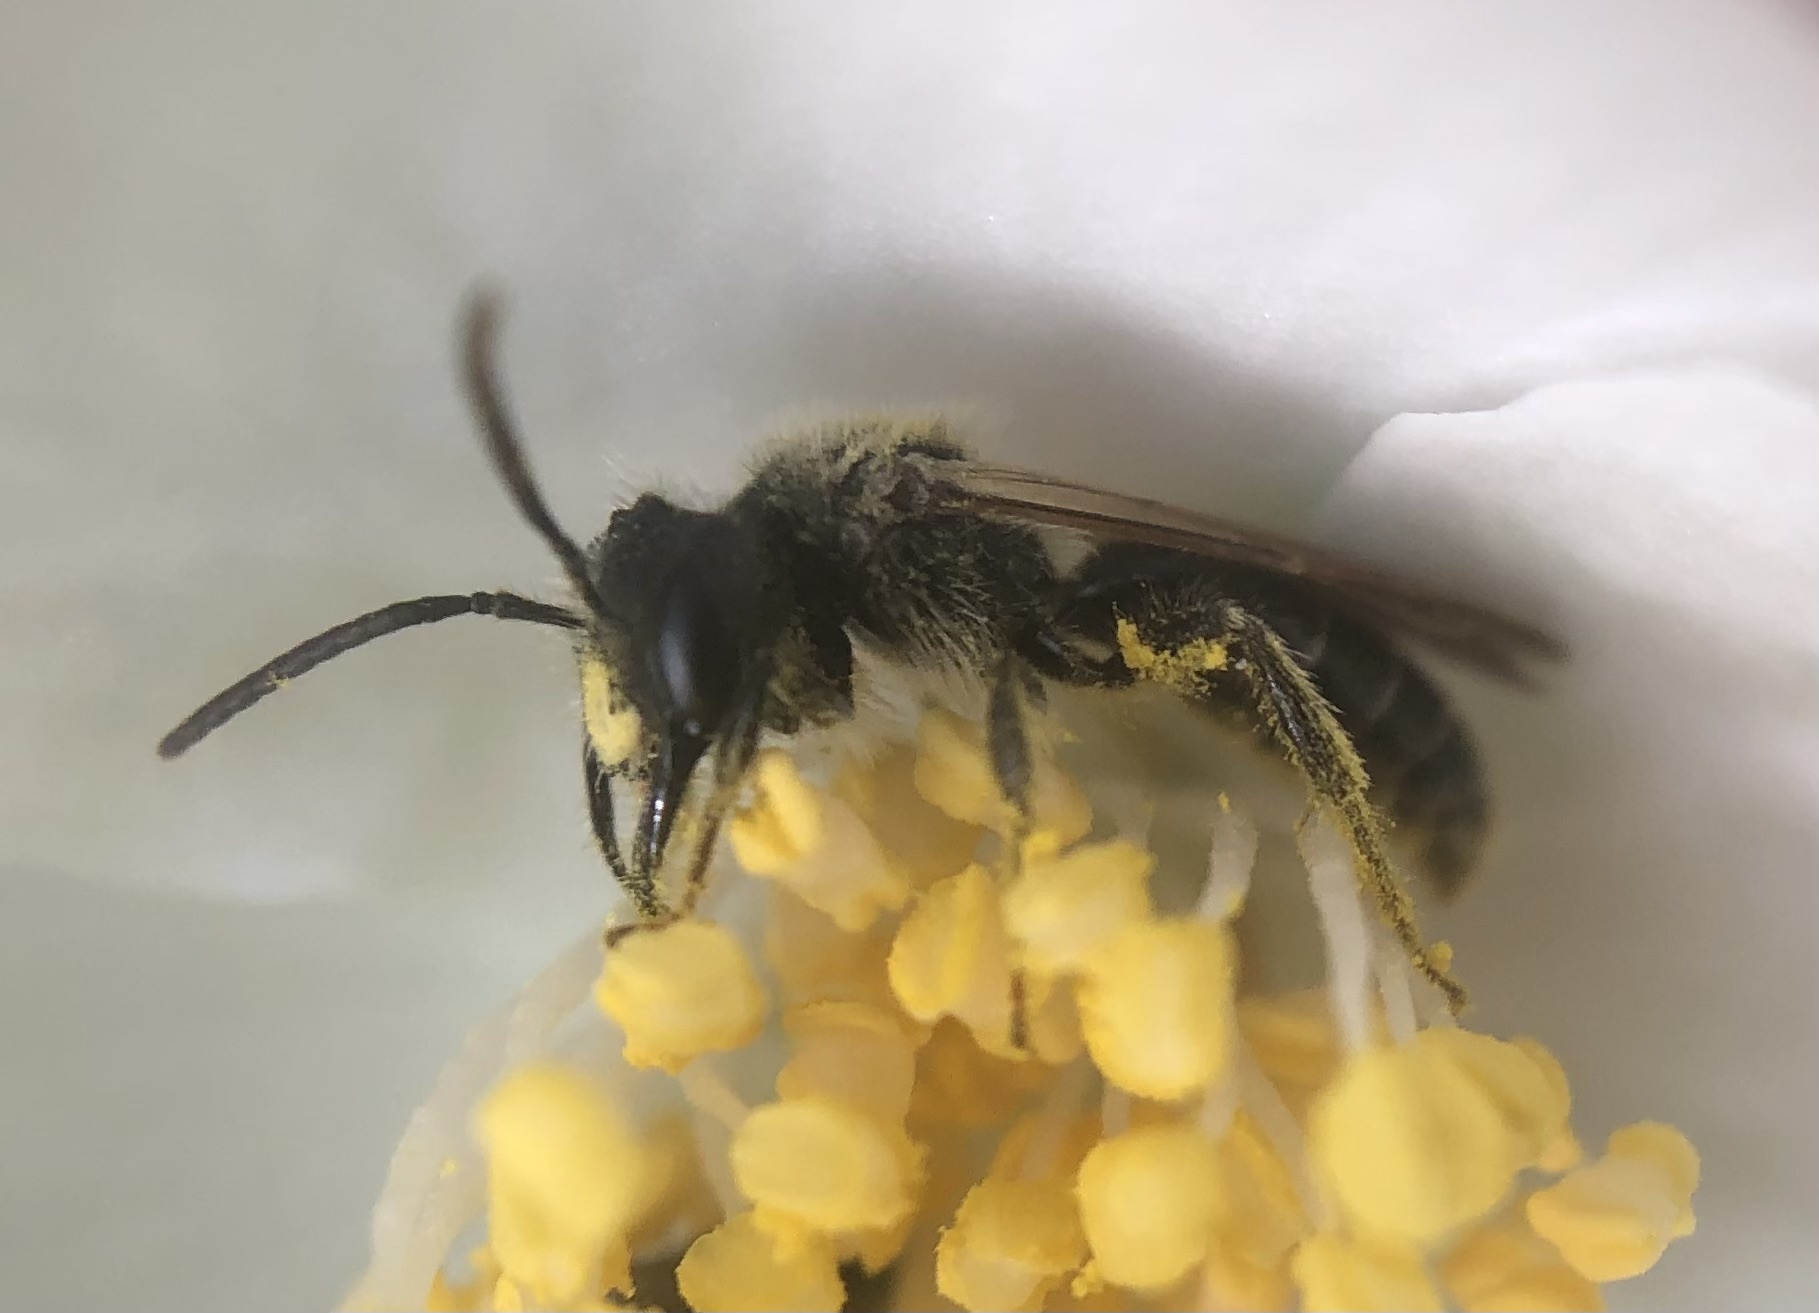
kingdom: Animalia
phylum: Arthropoda
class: Insecta
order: Hymenoptera
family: Andrenidae
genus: Andrena
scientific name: Andrena cerebrata
